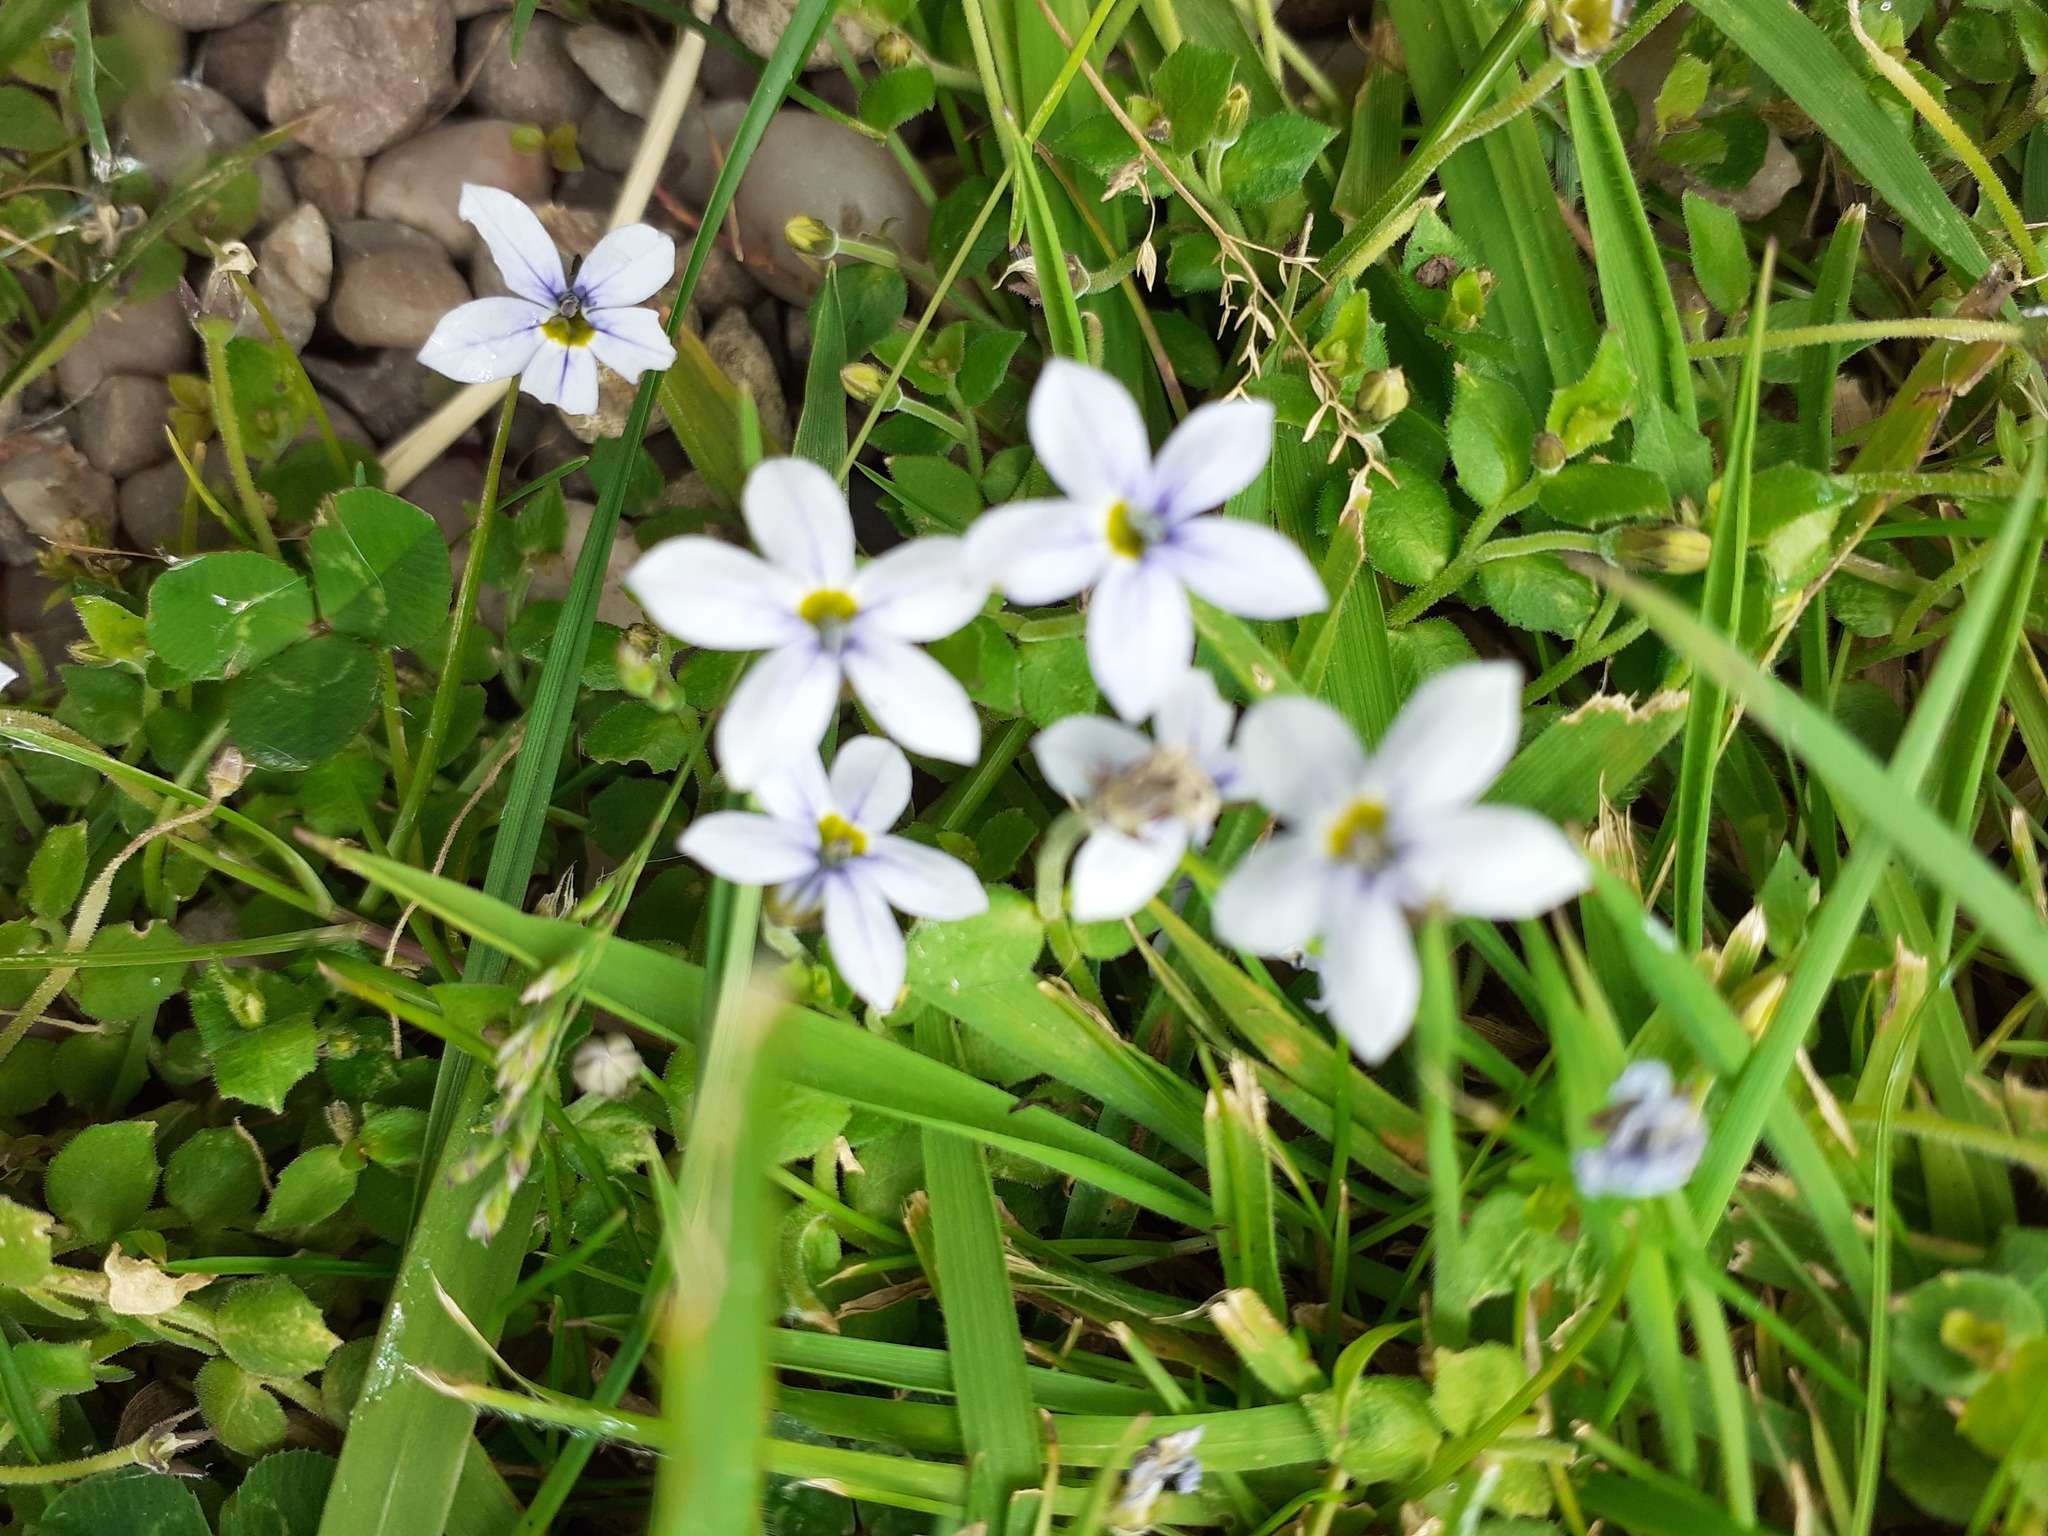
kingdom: Plantae
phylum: Tracheophyta
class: Magnoliopsida
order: Asterales
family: Campanulaceae
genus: Lobelia
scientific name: Lobelia pedunculata
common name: Matted pratia
